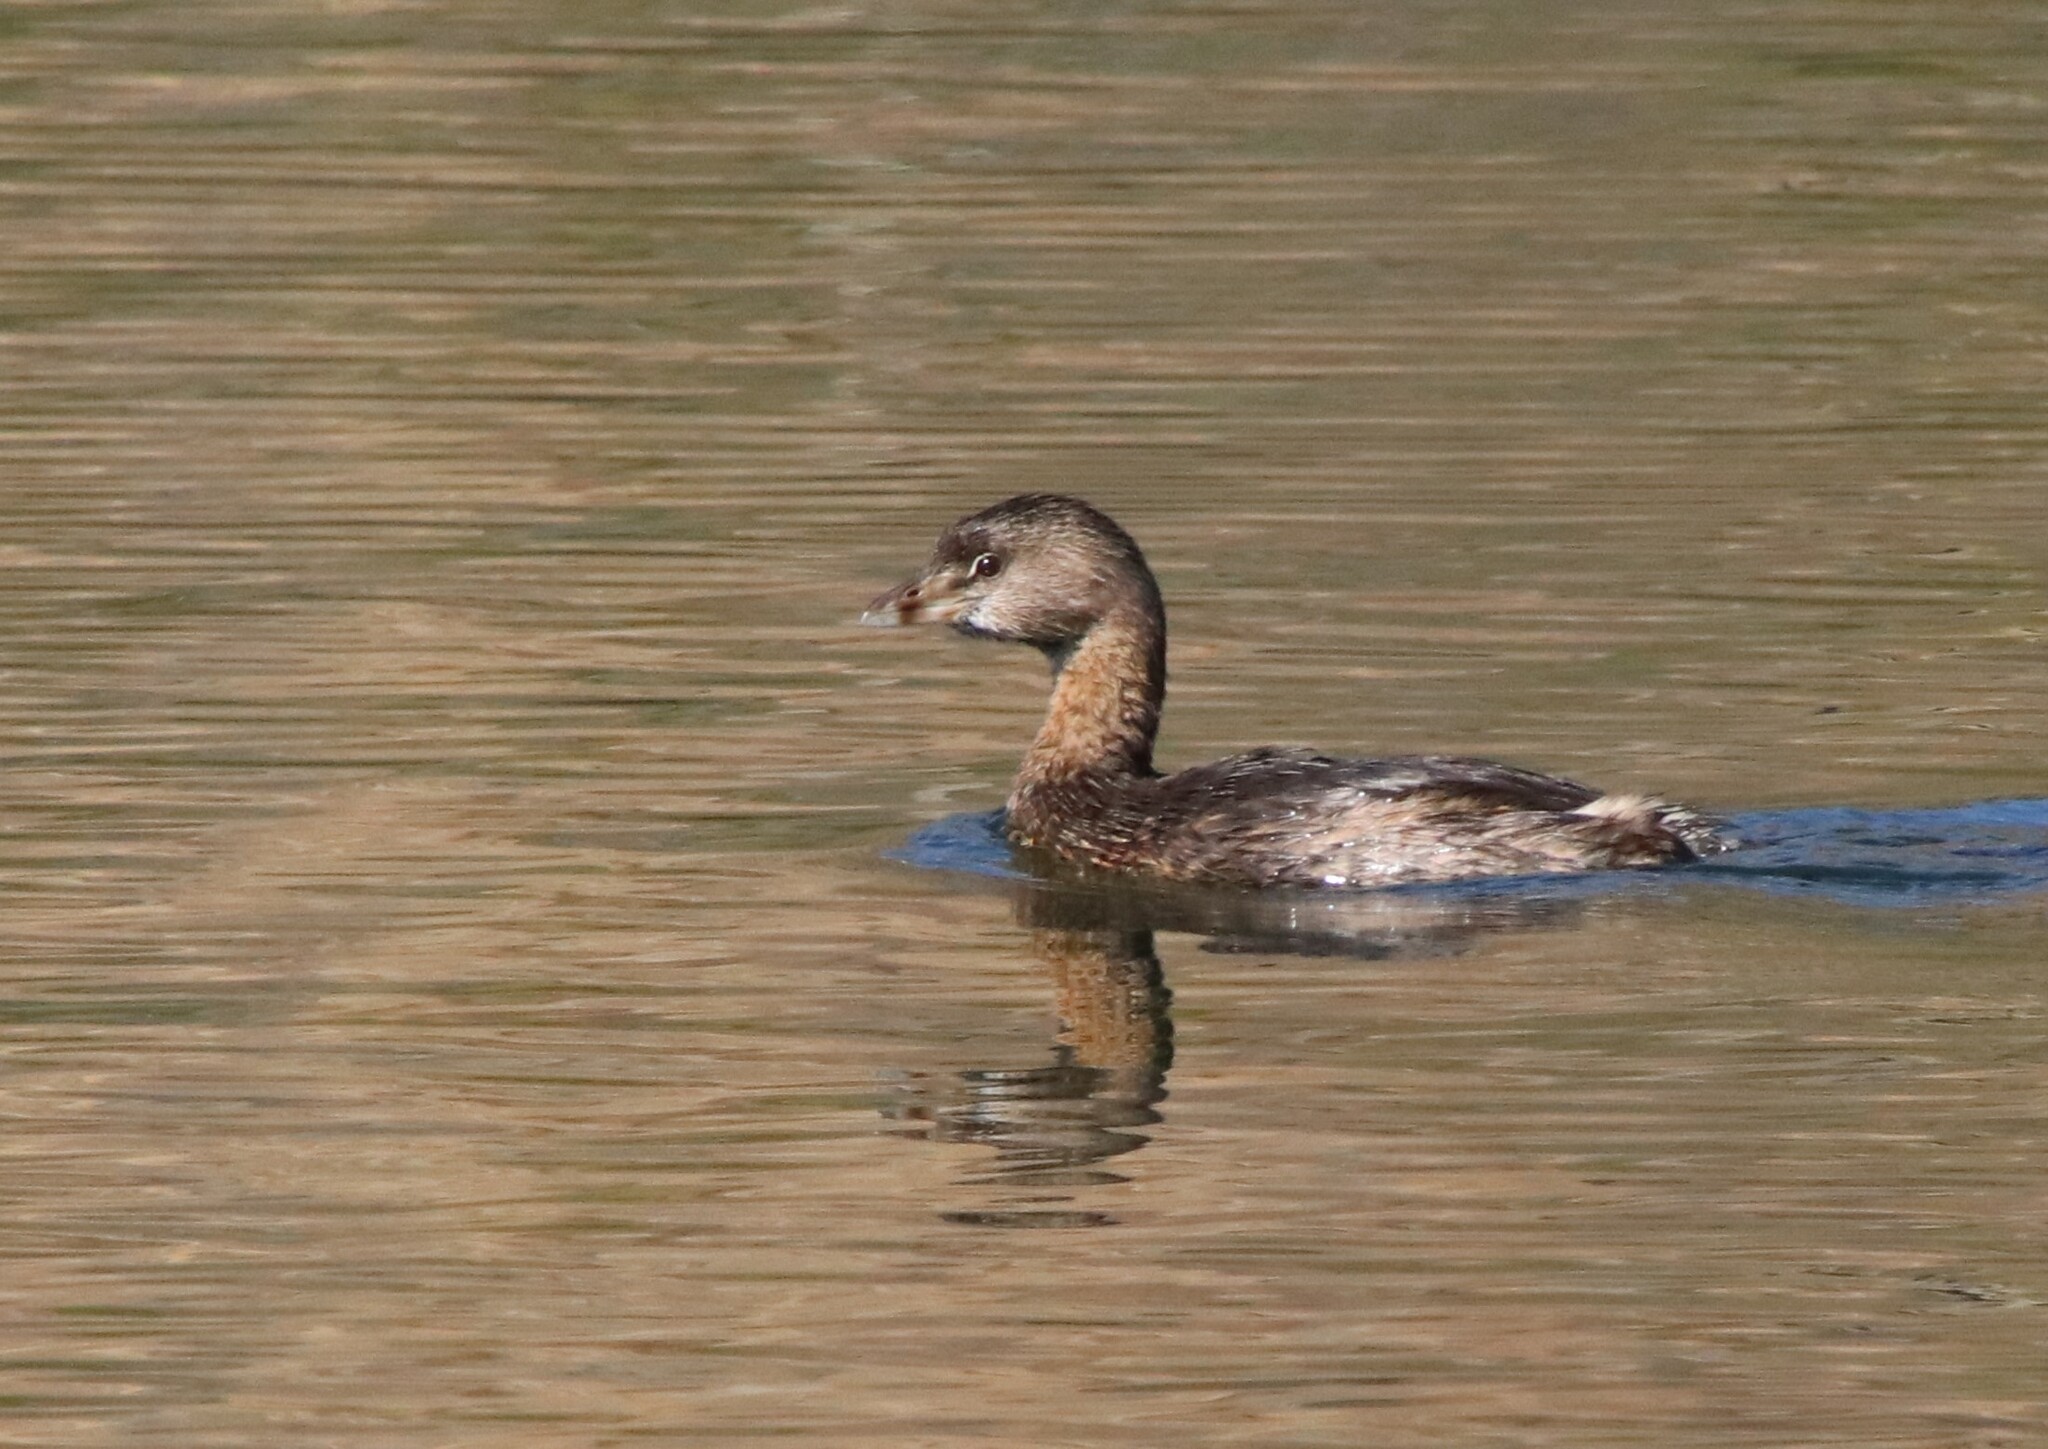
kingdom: Animalia
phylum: Chordata
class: Aves
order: Podicipediformes
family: Podicipedidae
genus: Podilymbus
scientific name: Podilymbus podiceps
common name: Pied-billed grebe
